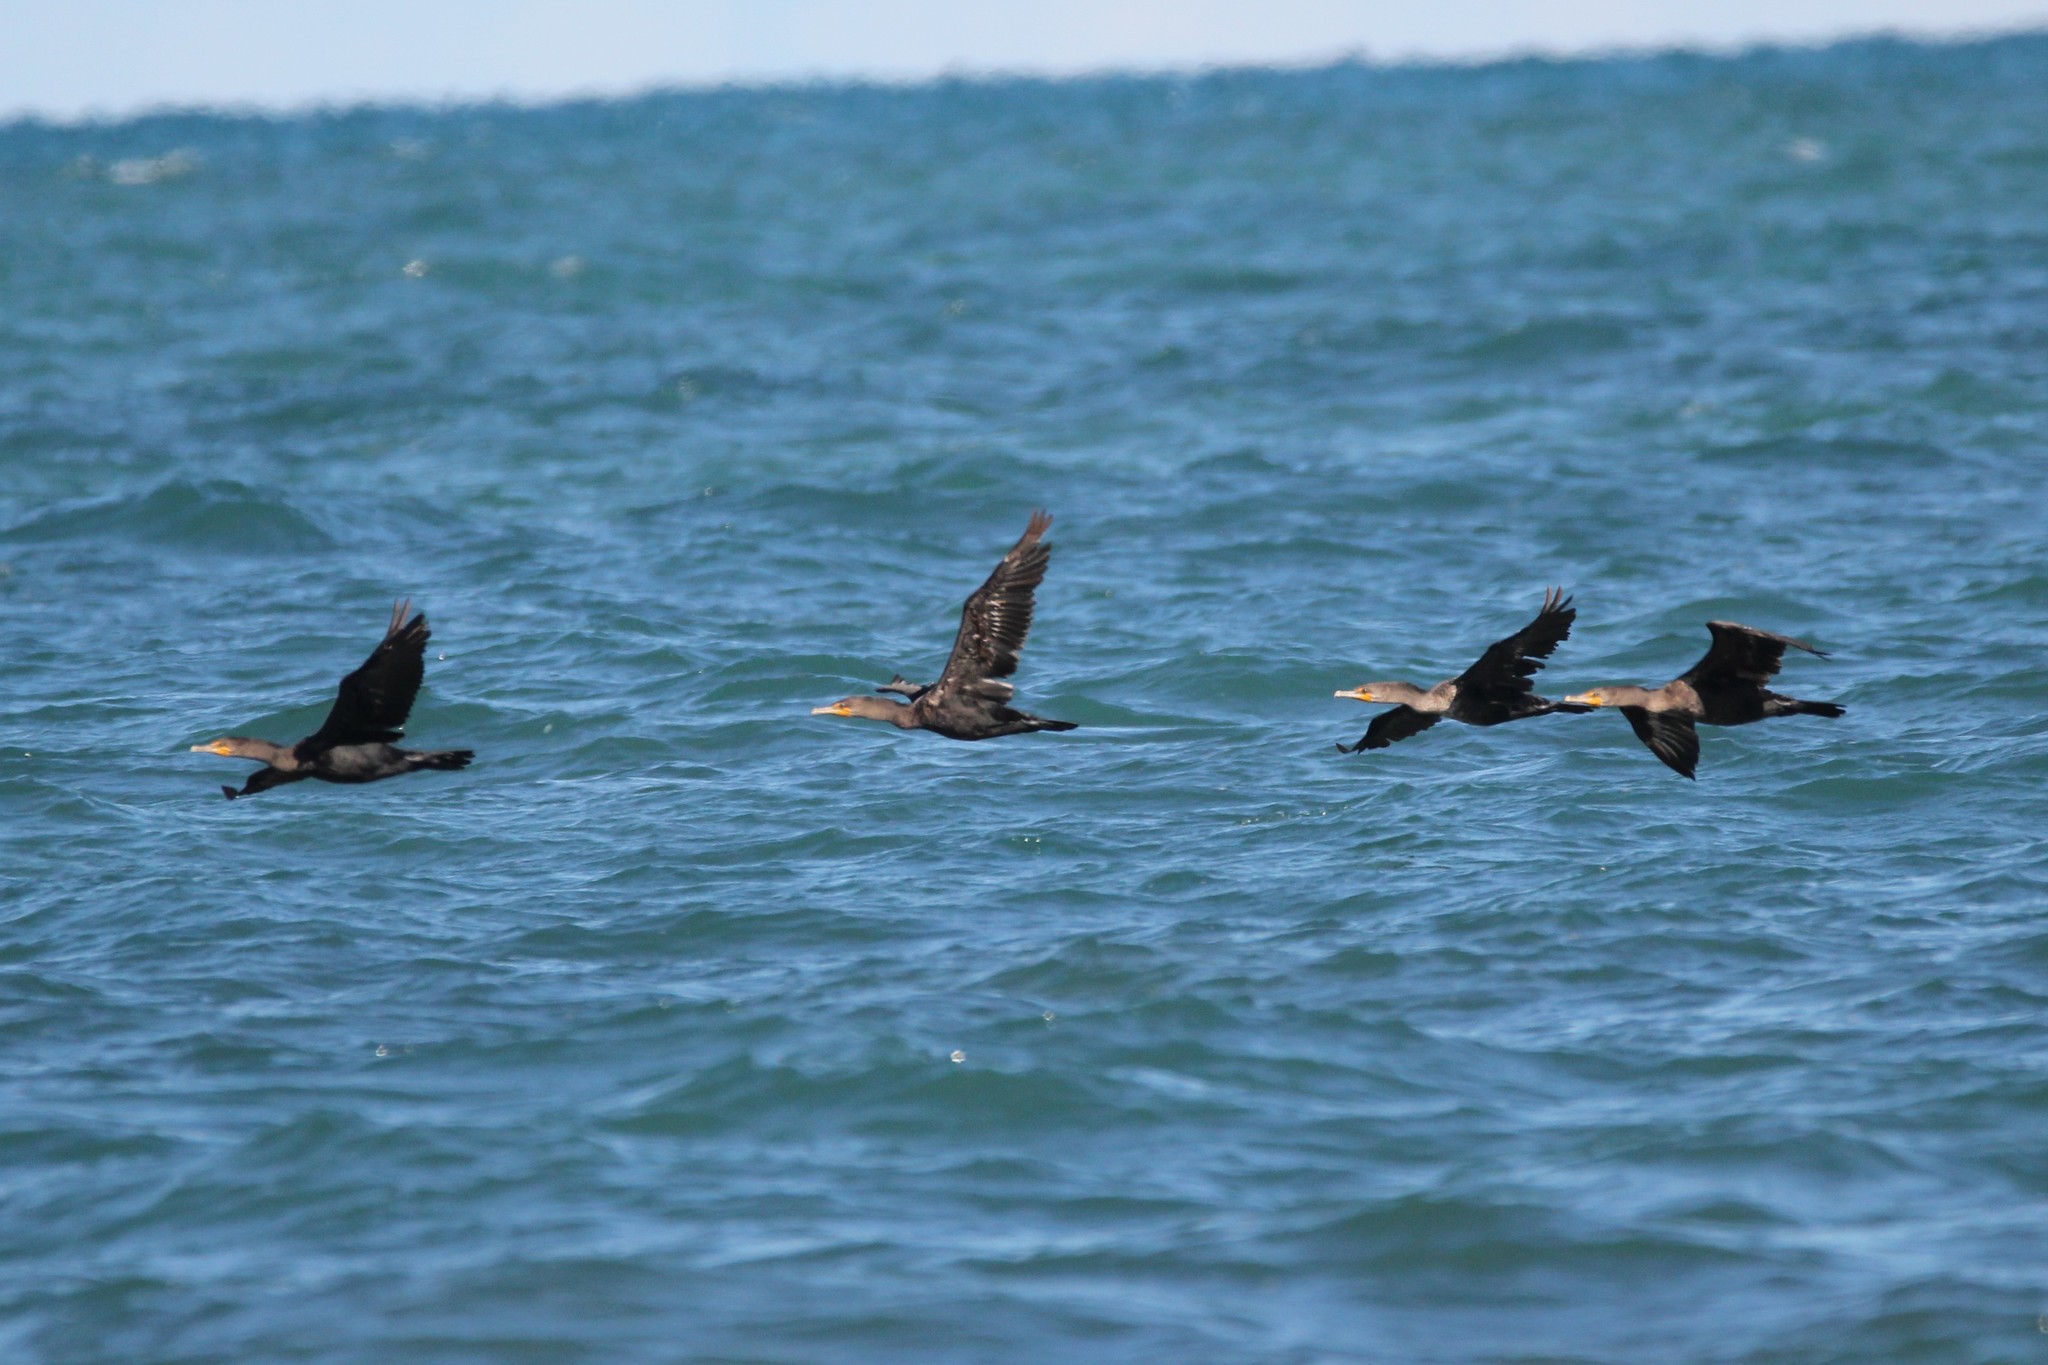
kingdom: Animalia
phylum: Chordata
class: Aves
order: Suliformes
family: Phalacrocoracidae
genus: Phalacrocorax
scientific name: Phalacrocorax auritus
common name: Double-crested cormorant
